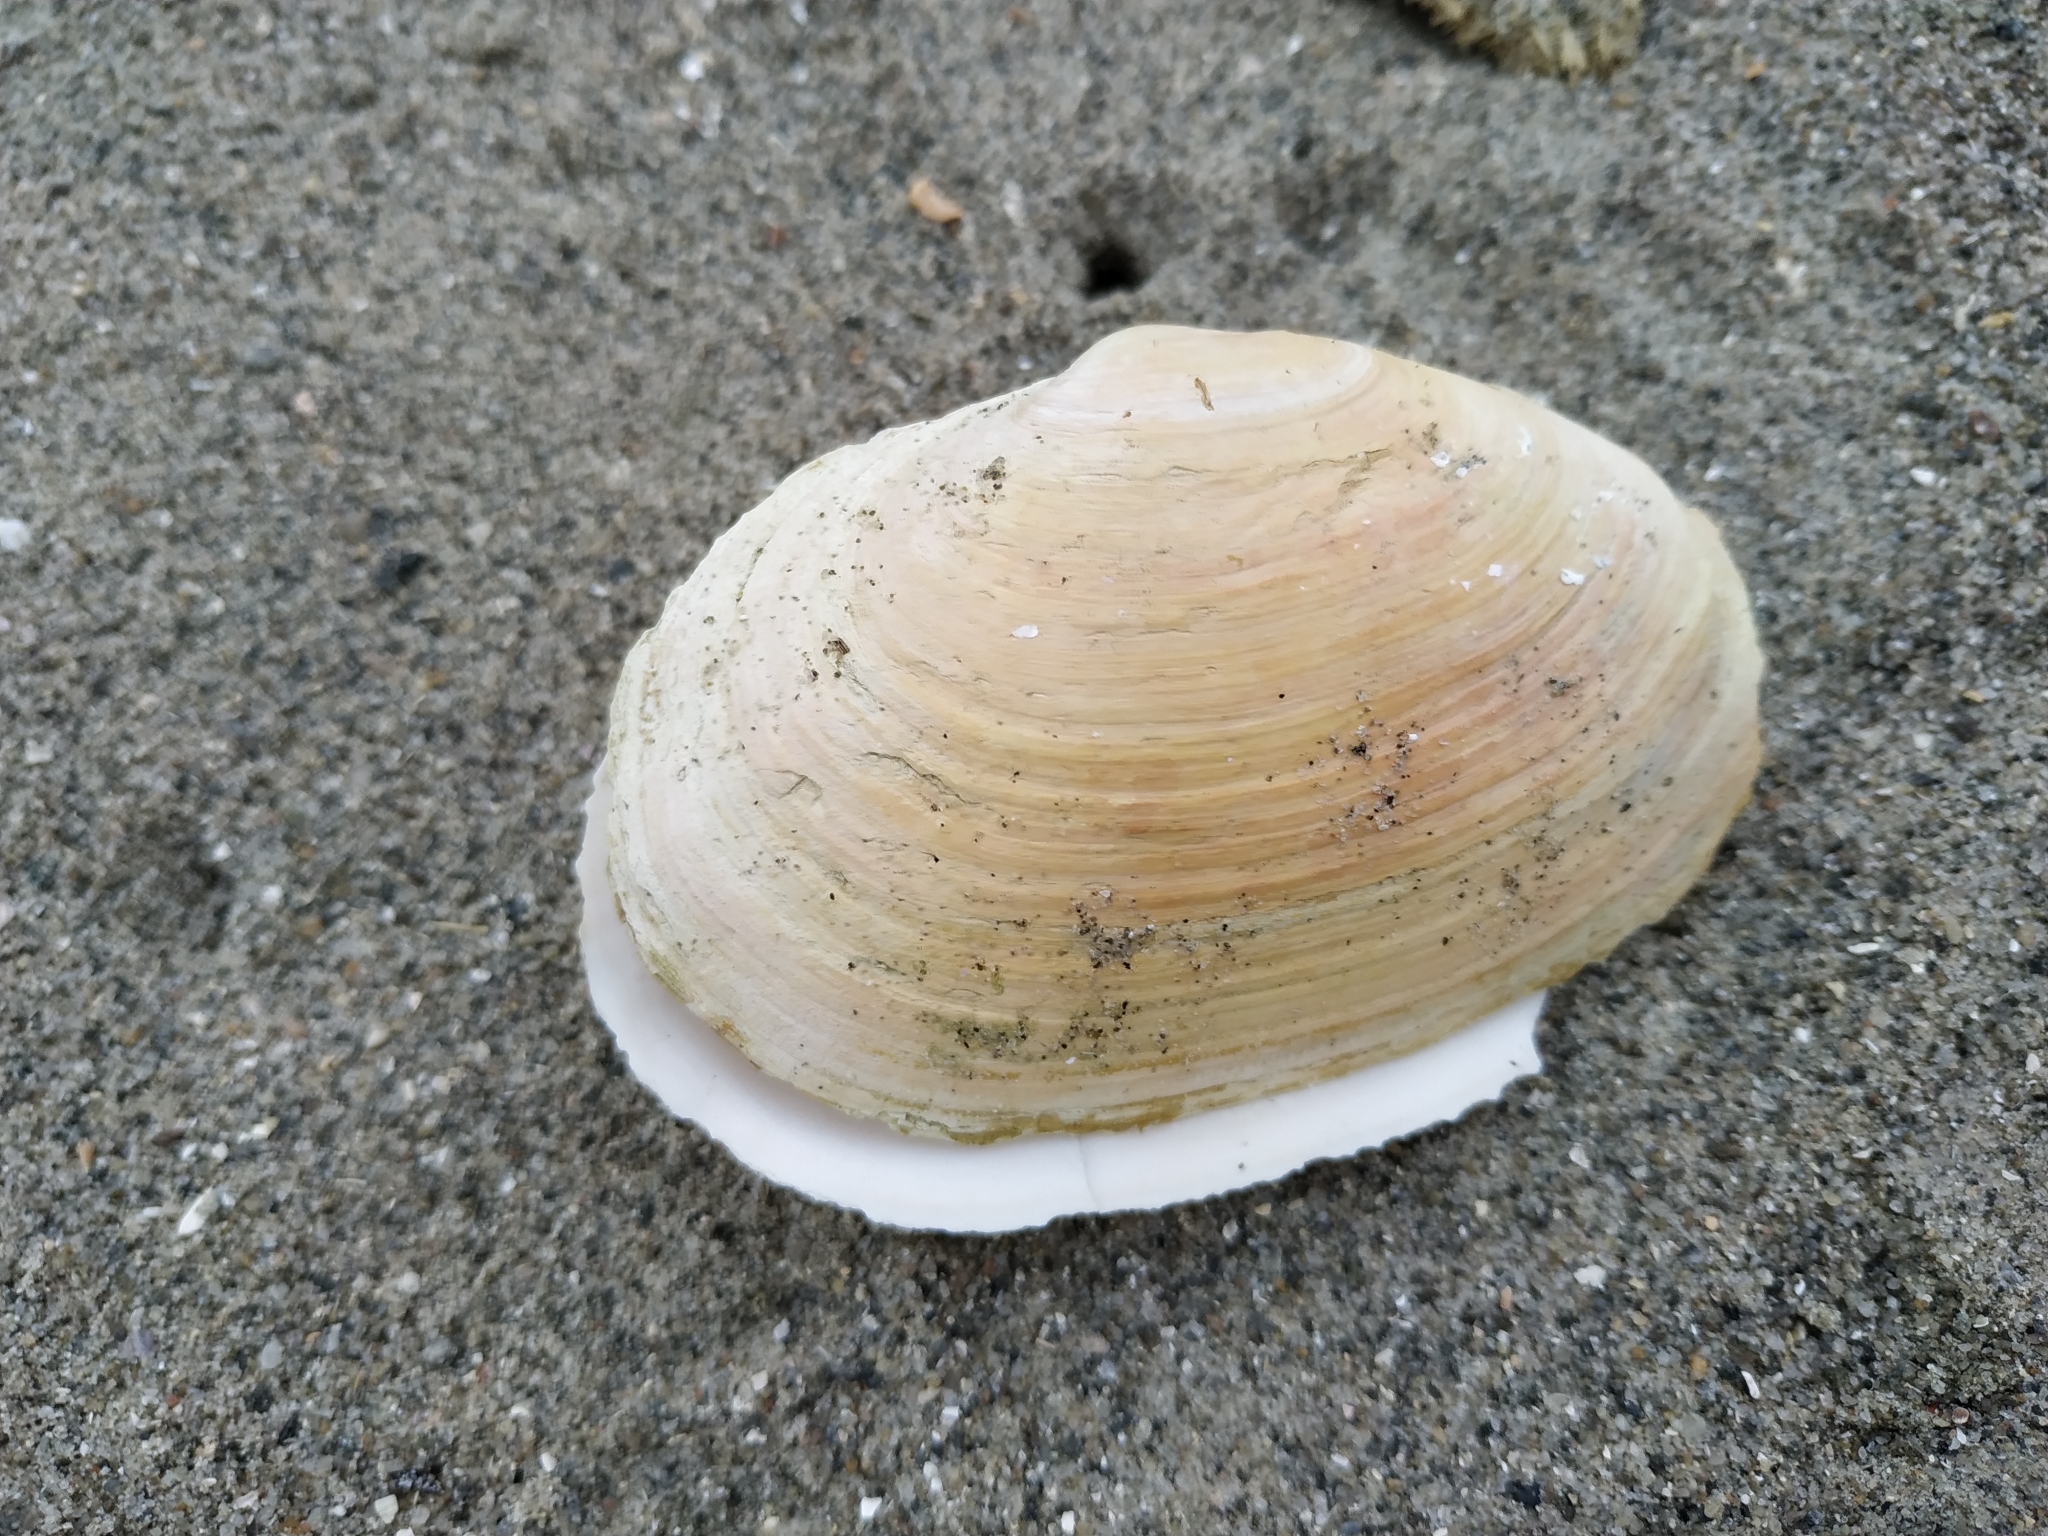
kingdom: Animalia
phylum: Mollusca
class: Bivalvia
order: Myida
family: Myidae
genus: Mya
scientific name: Mya arenaria
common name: Soft-shelled clam
